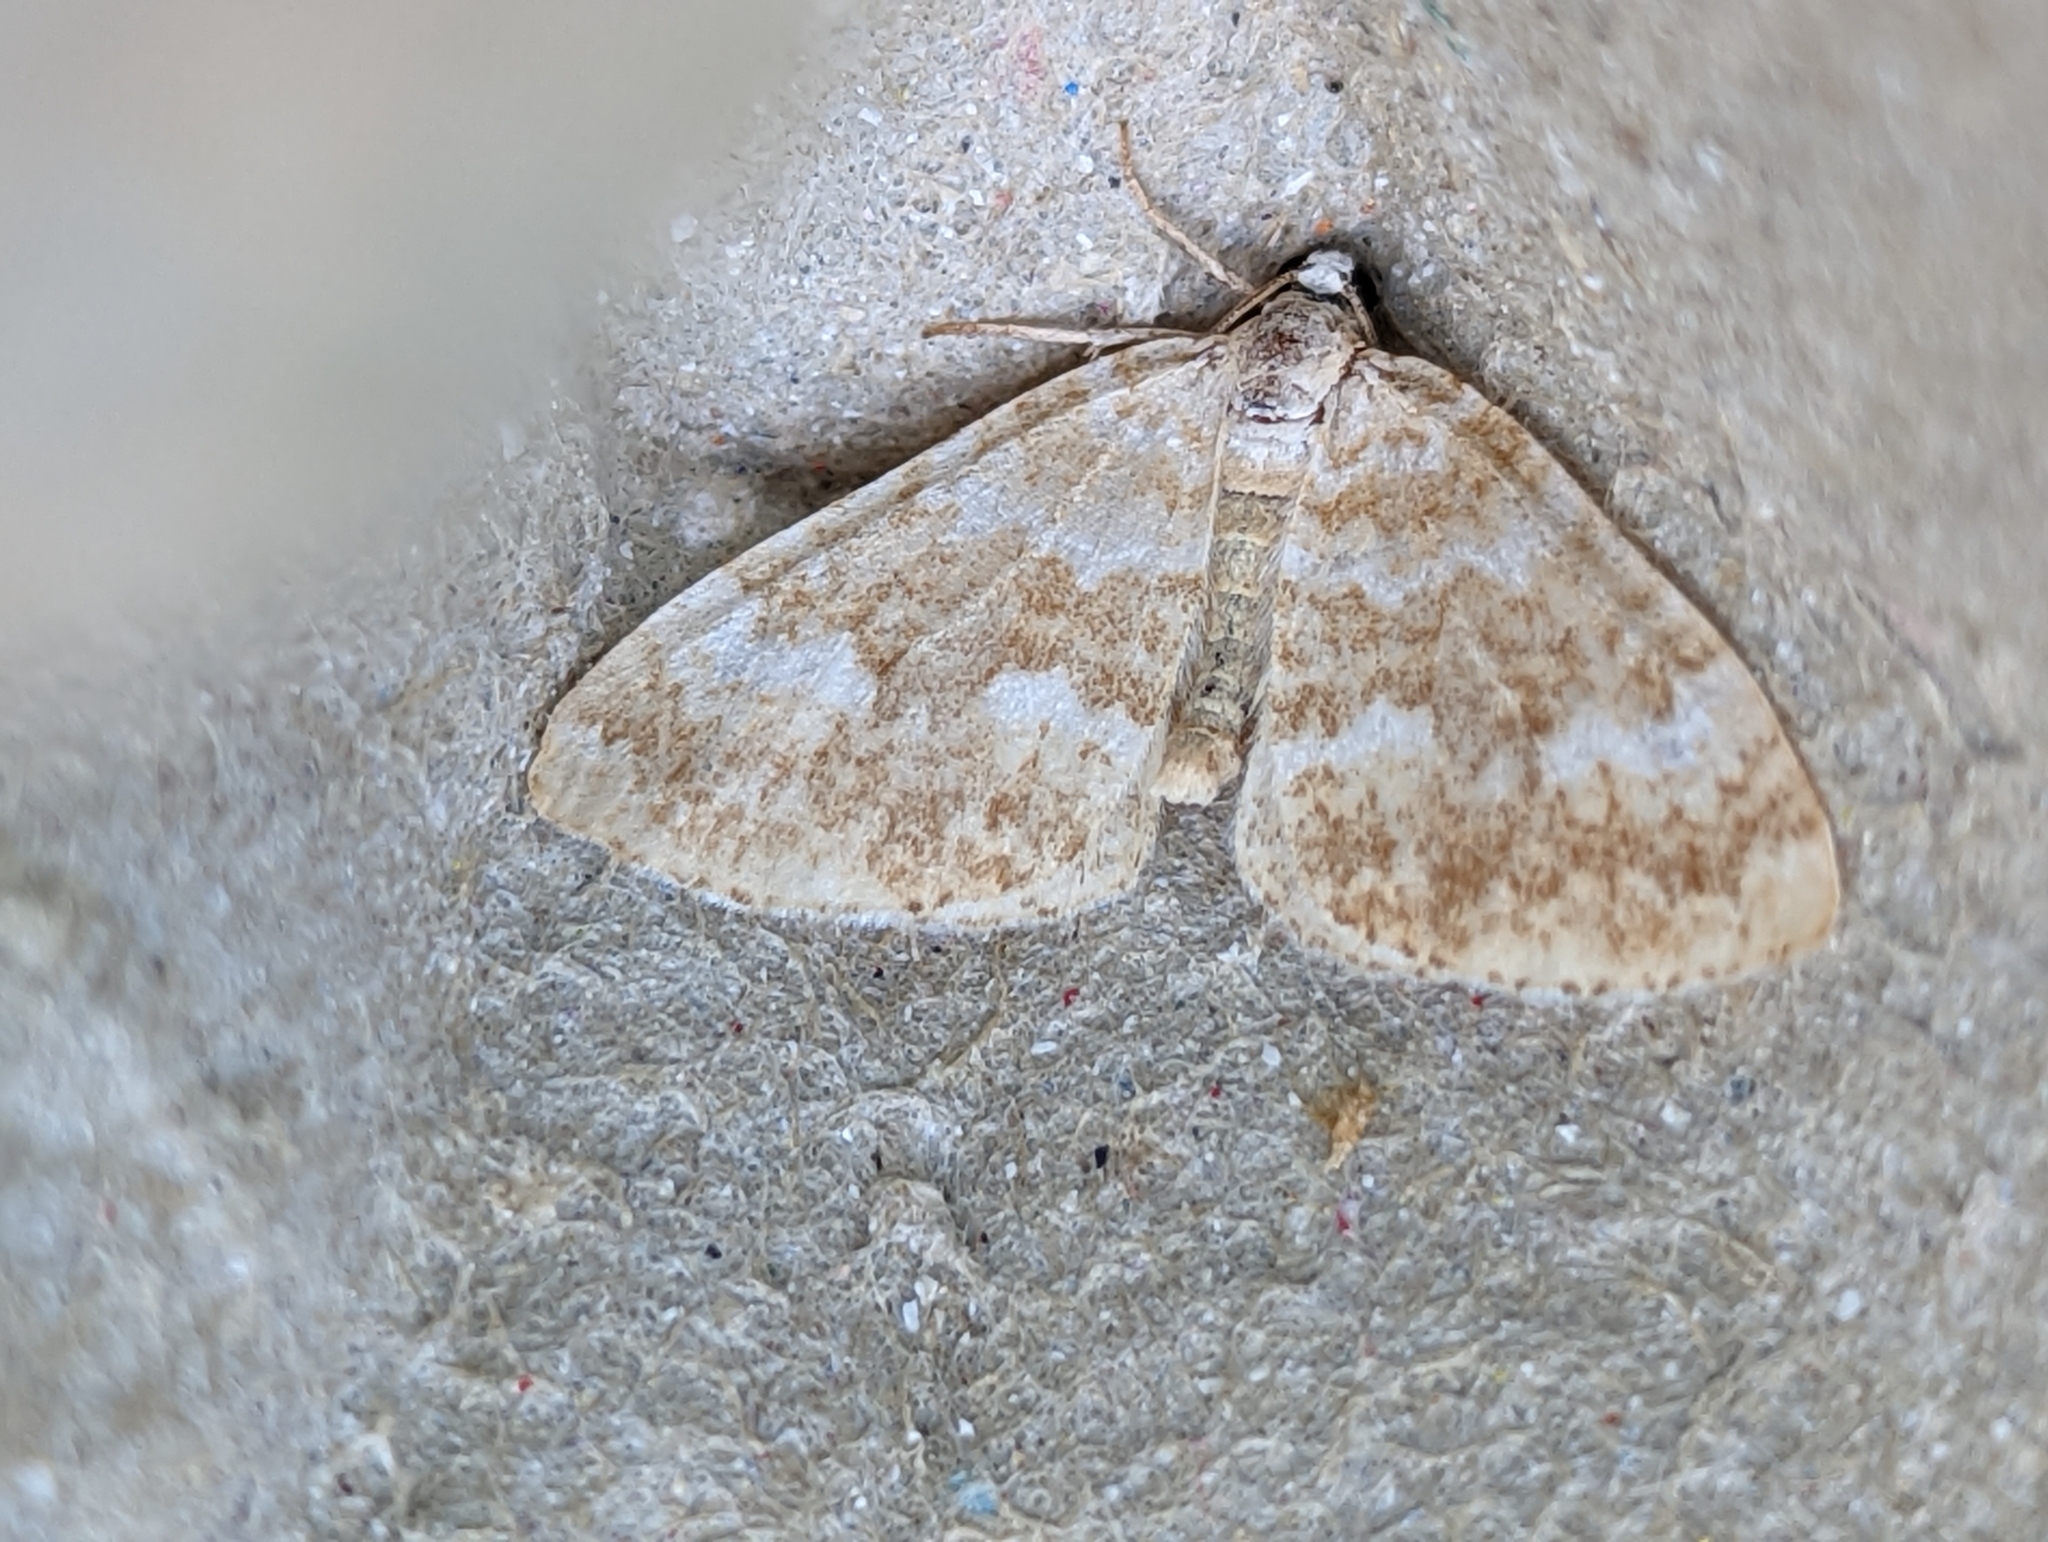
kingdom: Animalia
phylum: Arthropoda
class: Insecta
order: Lepidoptera
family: Geometridae
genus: Perizoma
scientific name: Perizoma flavofasciata
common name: Sandy carpet
